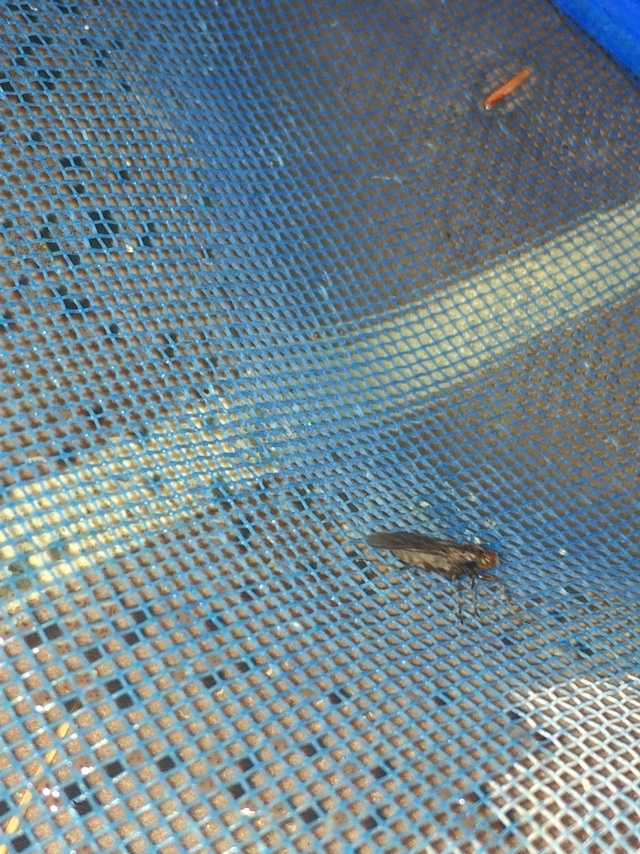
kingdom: Animalia
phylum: Arthropoda
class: Insecta
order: Diptera
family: Stratiomyidae
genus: Inopus
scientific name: Inopus rubriceps
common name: Soldier fly
